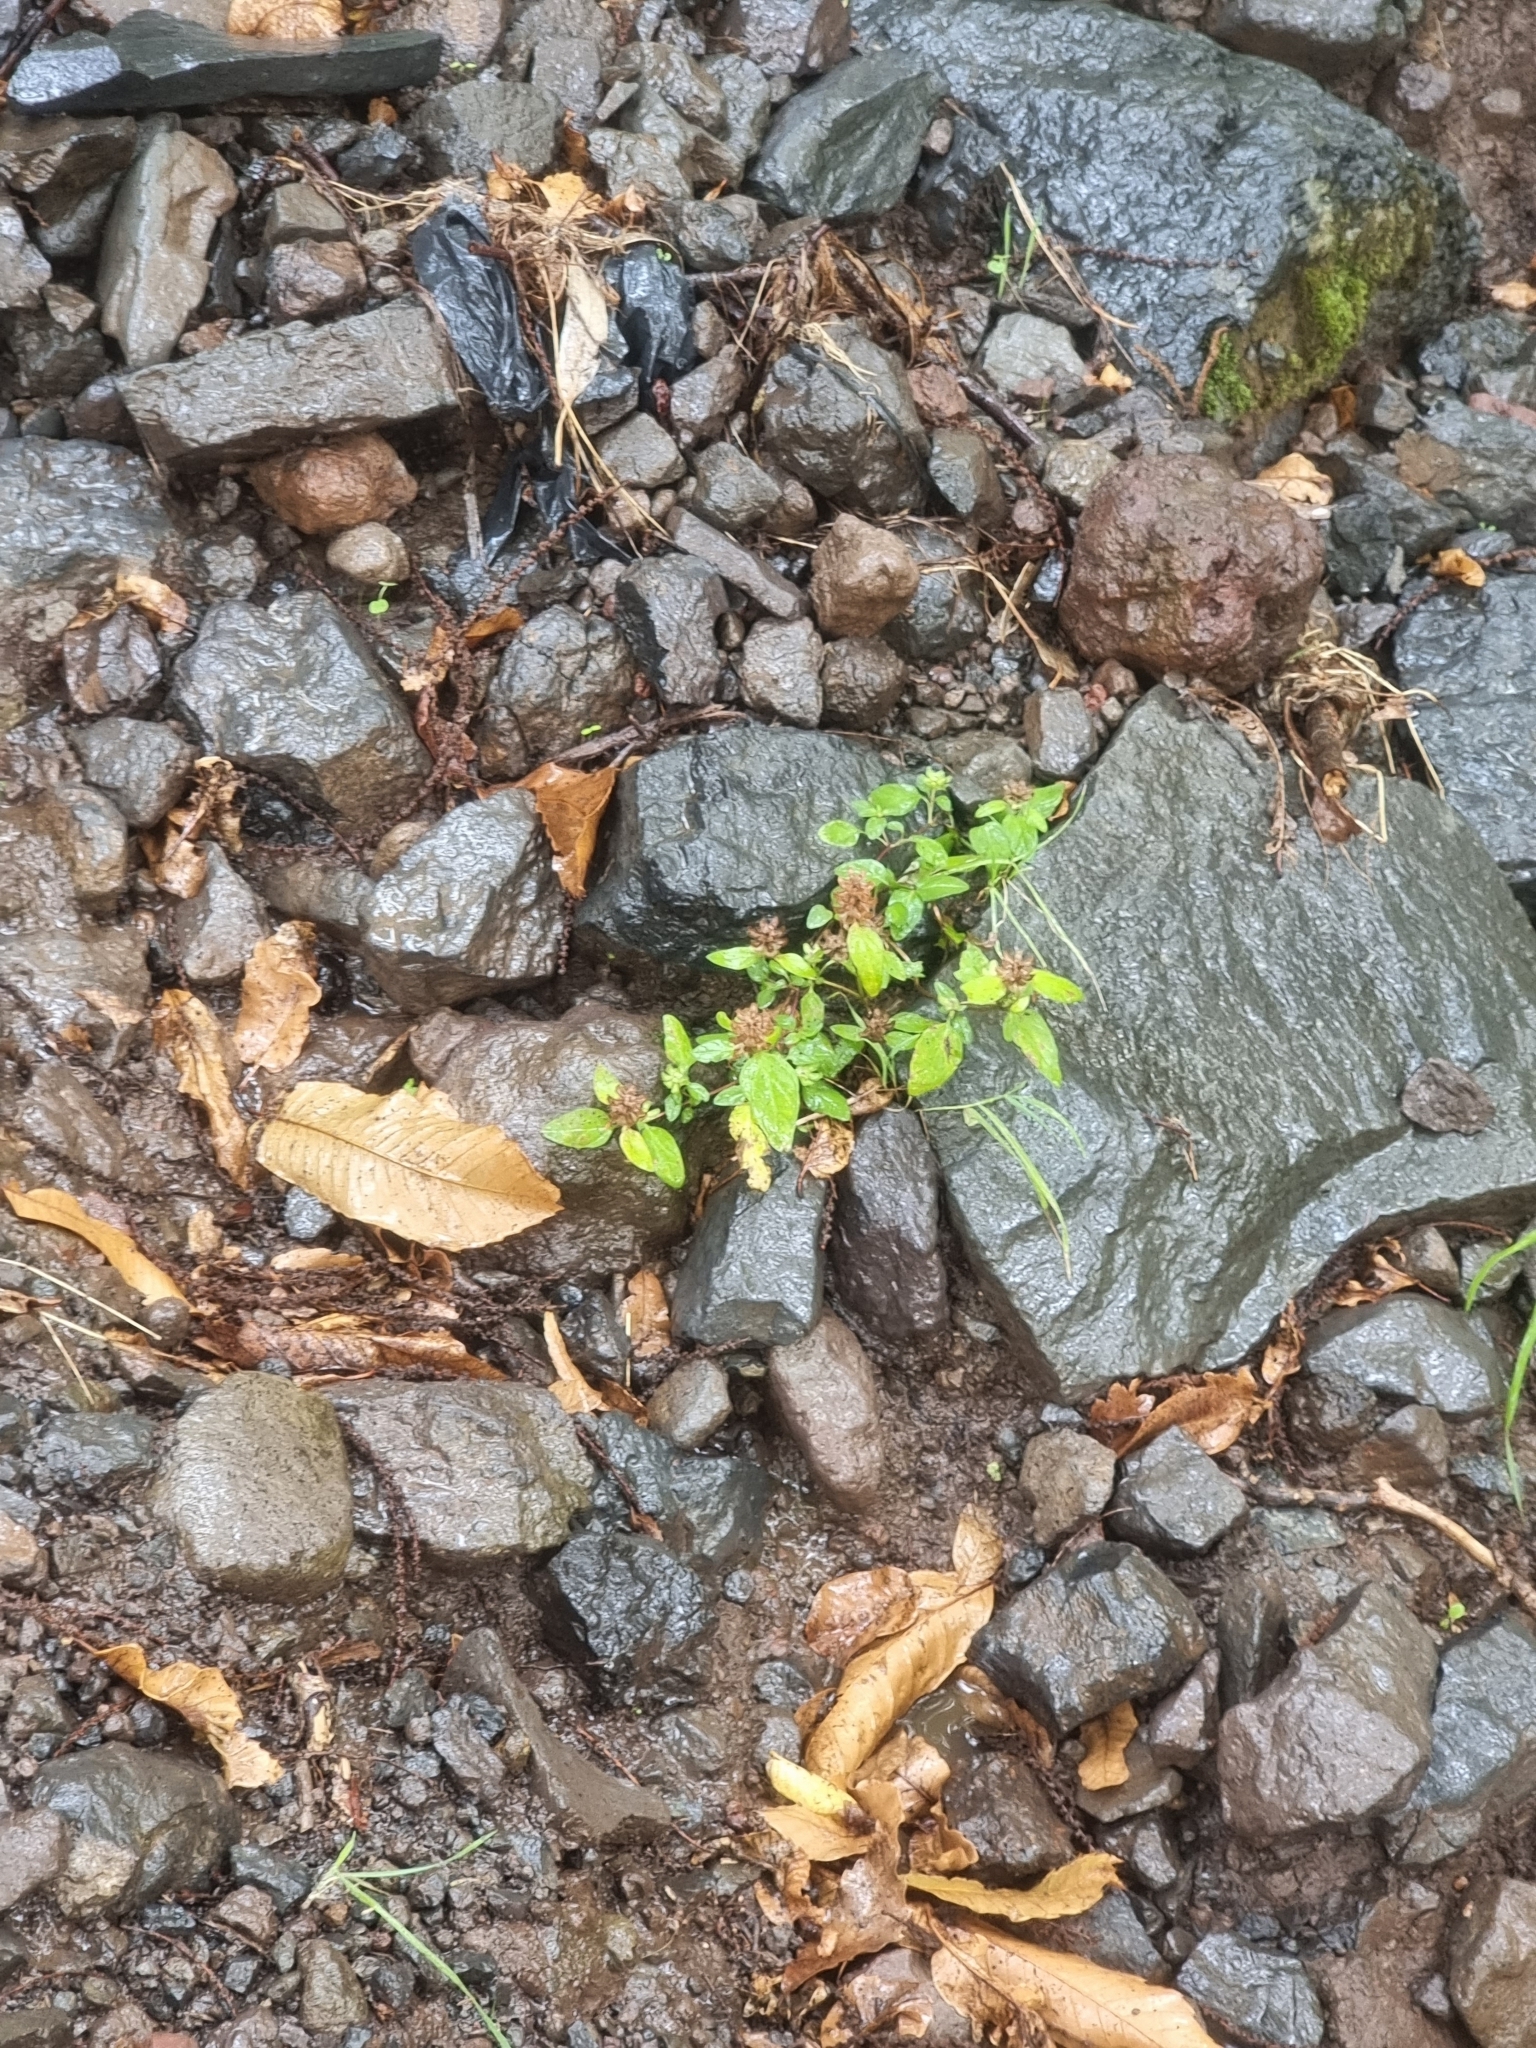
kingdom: Plantae
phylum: Tracheophyta
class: Magnoliopsida
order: Lamiales
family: Lamiaceae
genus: Prunella
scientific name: Prunella vulgaris
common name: Heal-all
